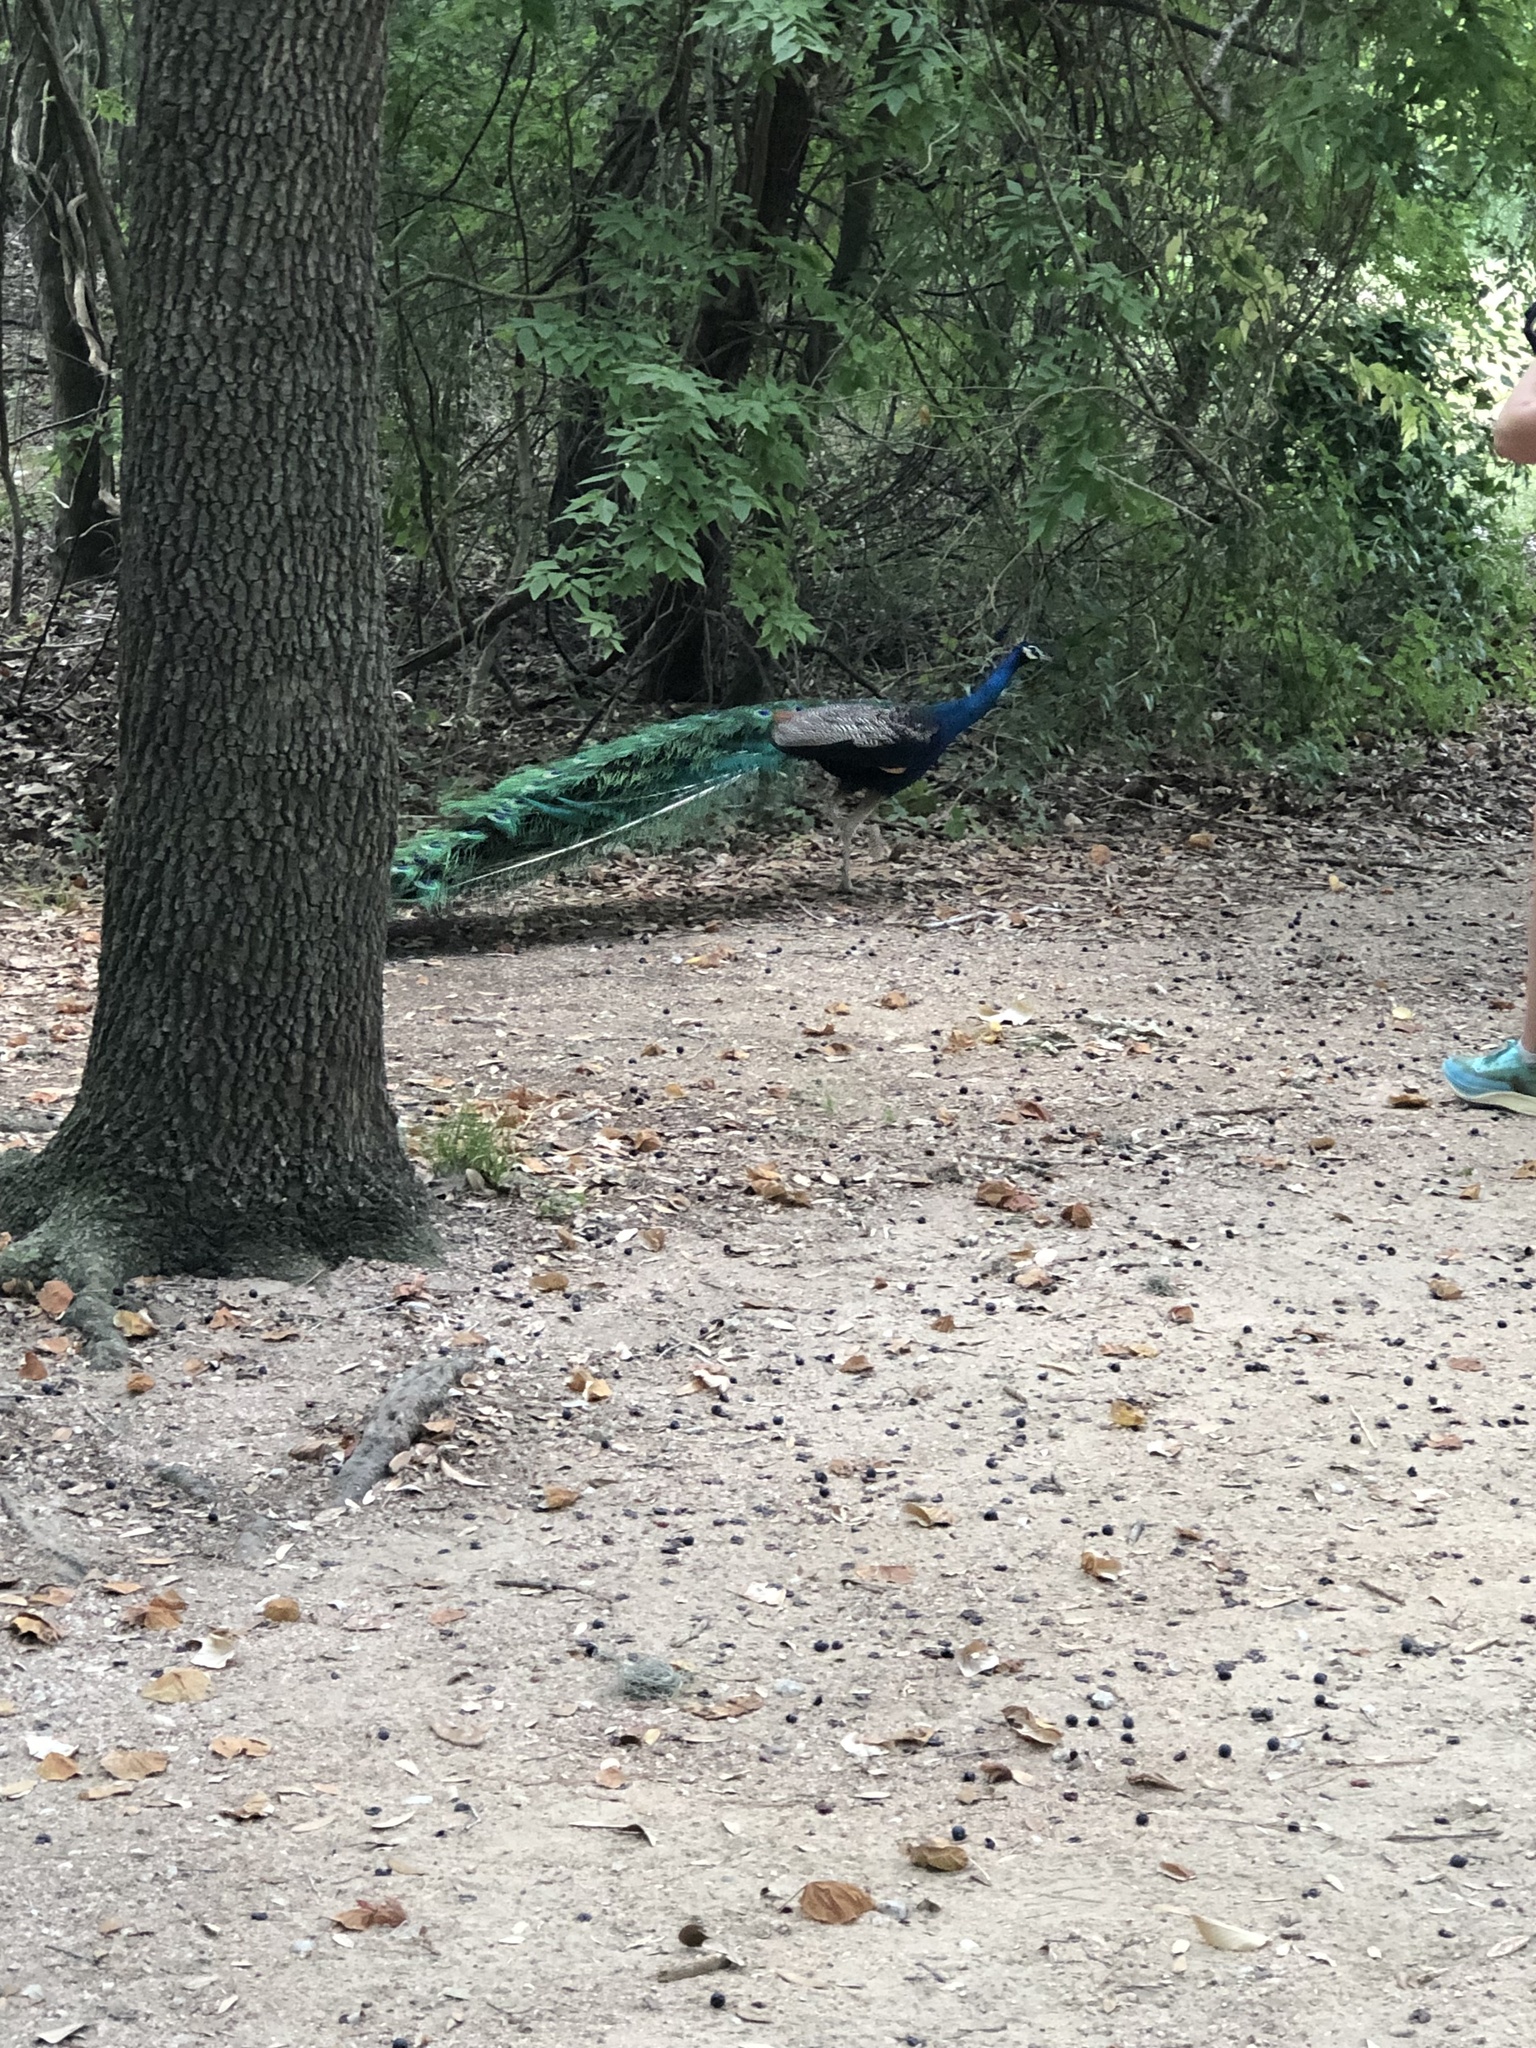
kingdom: Animalia
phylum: Chordata
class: Aves
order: Galliformes
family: Phasianidae
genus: Pavo
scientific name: Pavo cristatus
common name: Indian peafowl
